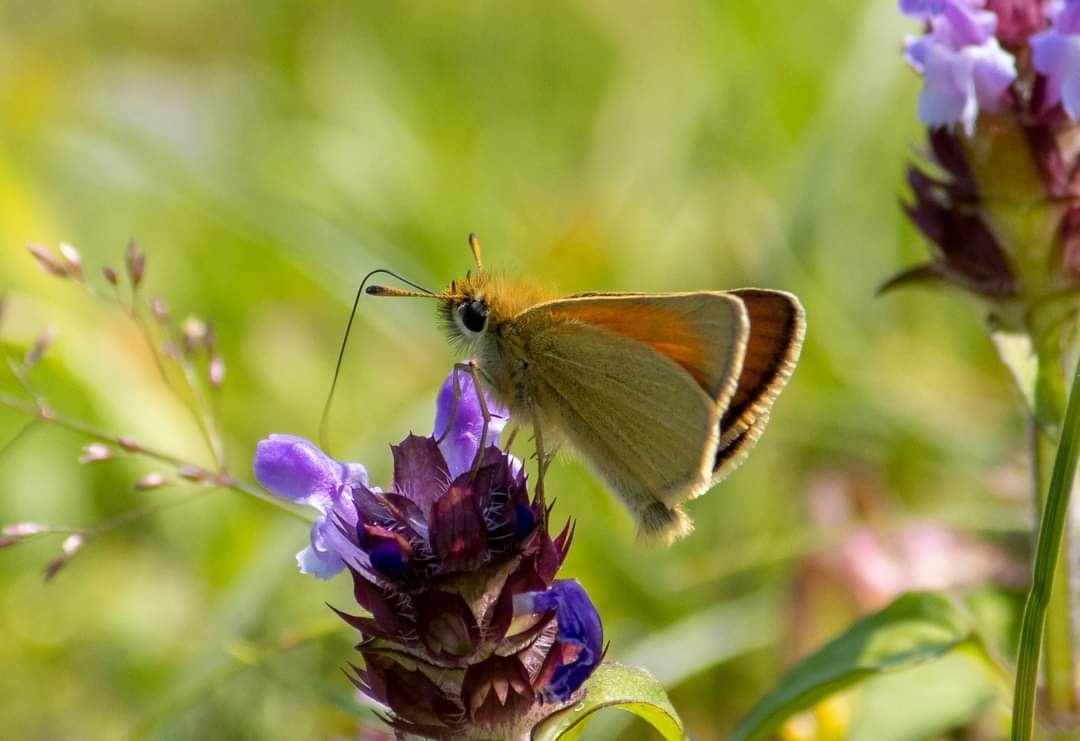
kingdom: Animalia
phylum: Arthropoda
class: Insecta
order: Lepidoptera
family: Hesperiidae
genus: Thymelicus
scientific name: Thymelicus lineola
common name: Essex skipper
